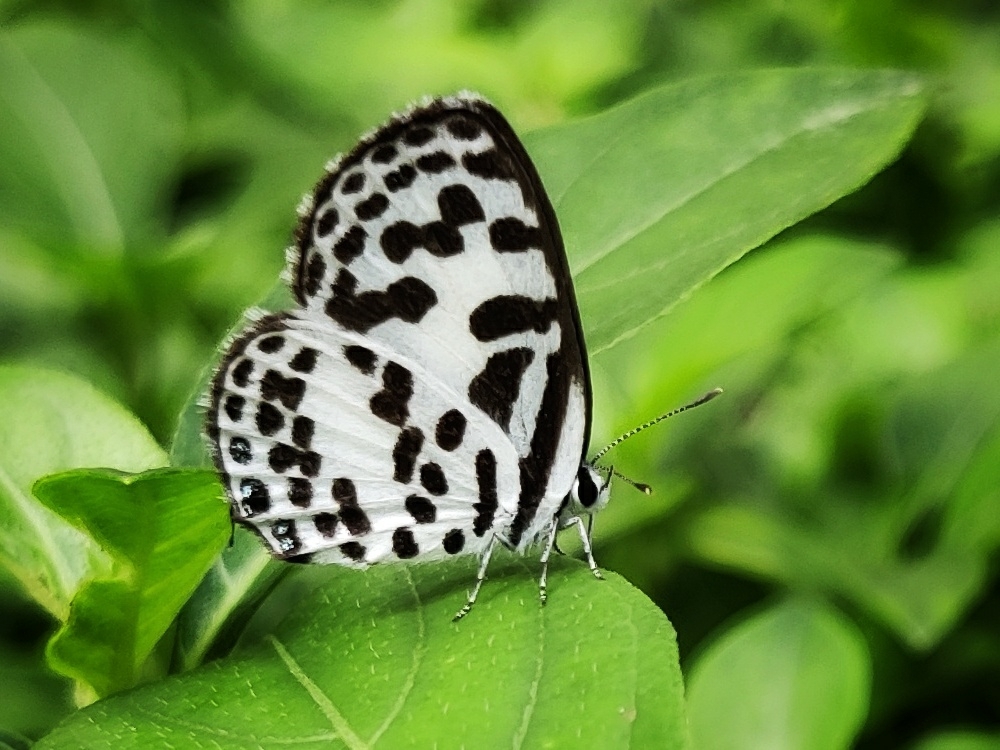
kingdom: Animalia
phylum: Arthropoda
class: Insecta
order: Lepidoptera
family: Lycaenidae
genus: Castalius
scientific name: Castalius rosimon
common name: Common pierrot
